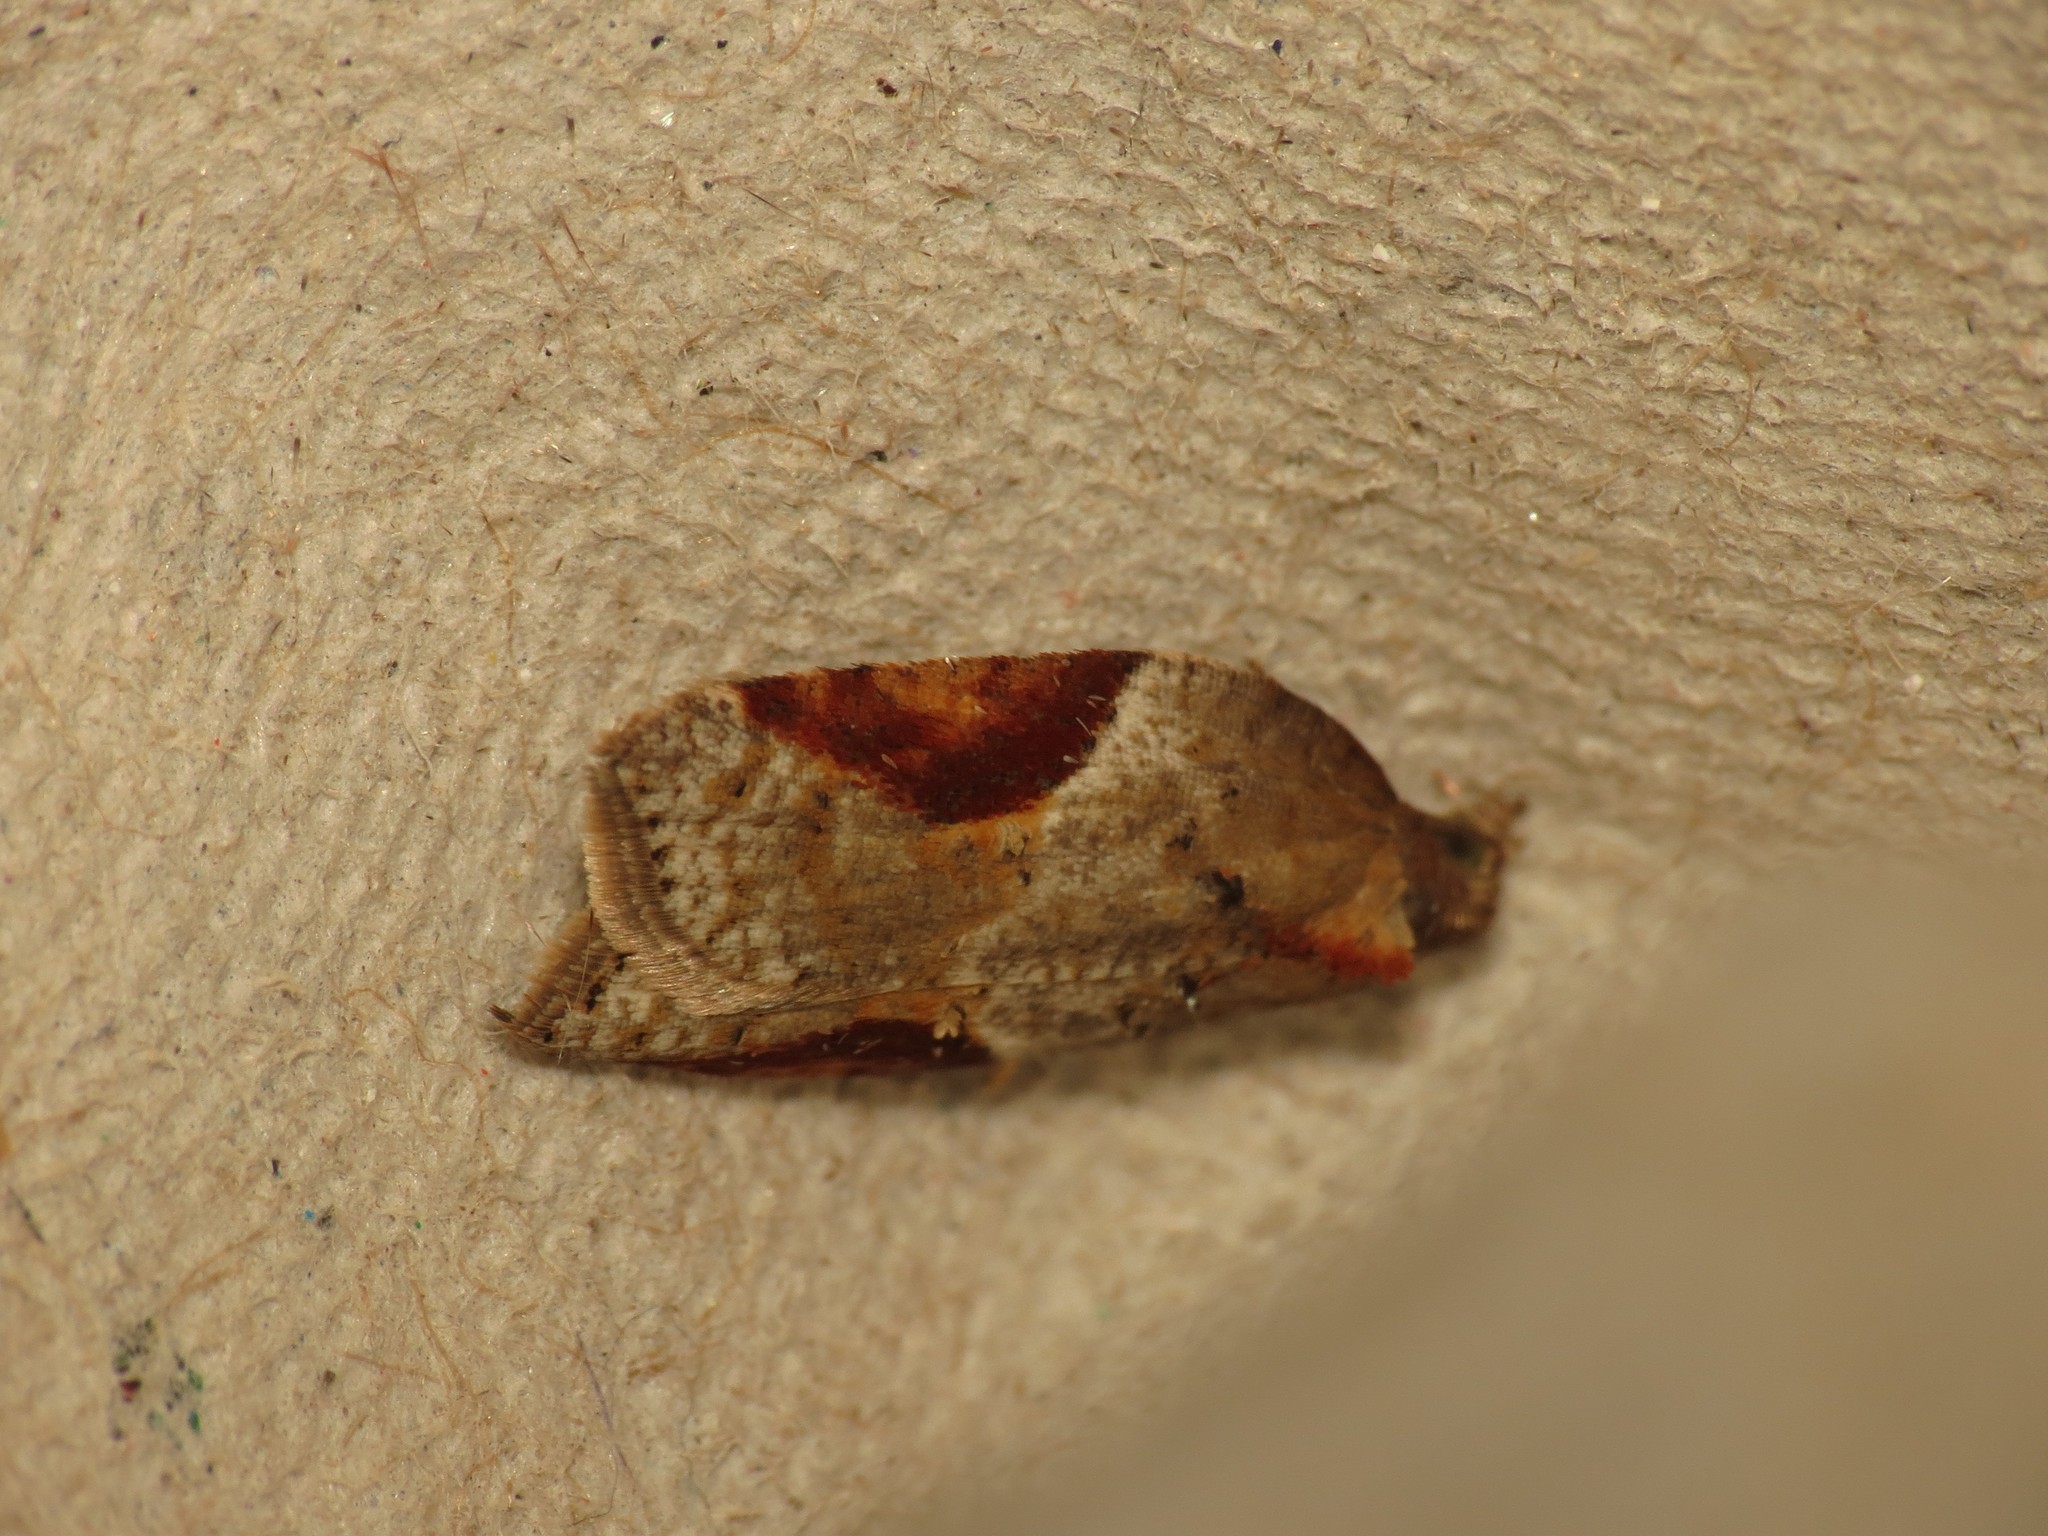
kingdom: Animalia
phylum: Arthropoda
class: Insecta
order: Lepidoptera
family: Tortricidae
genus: Acleris
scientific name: Acleris laterana
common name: Dark-triangle button
